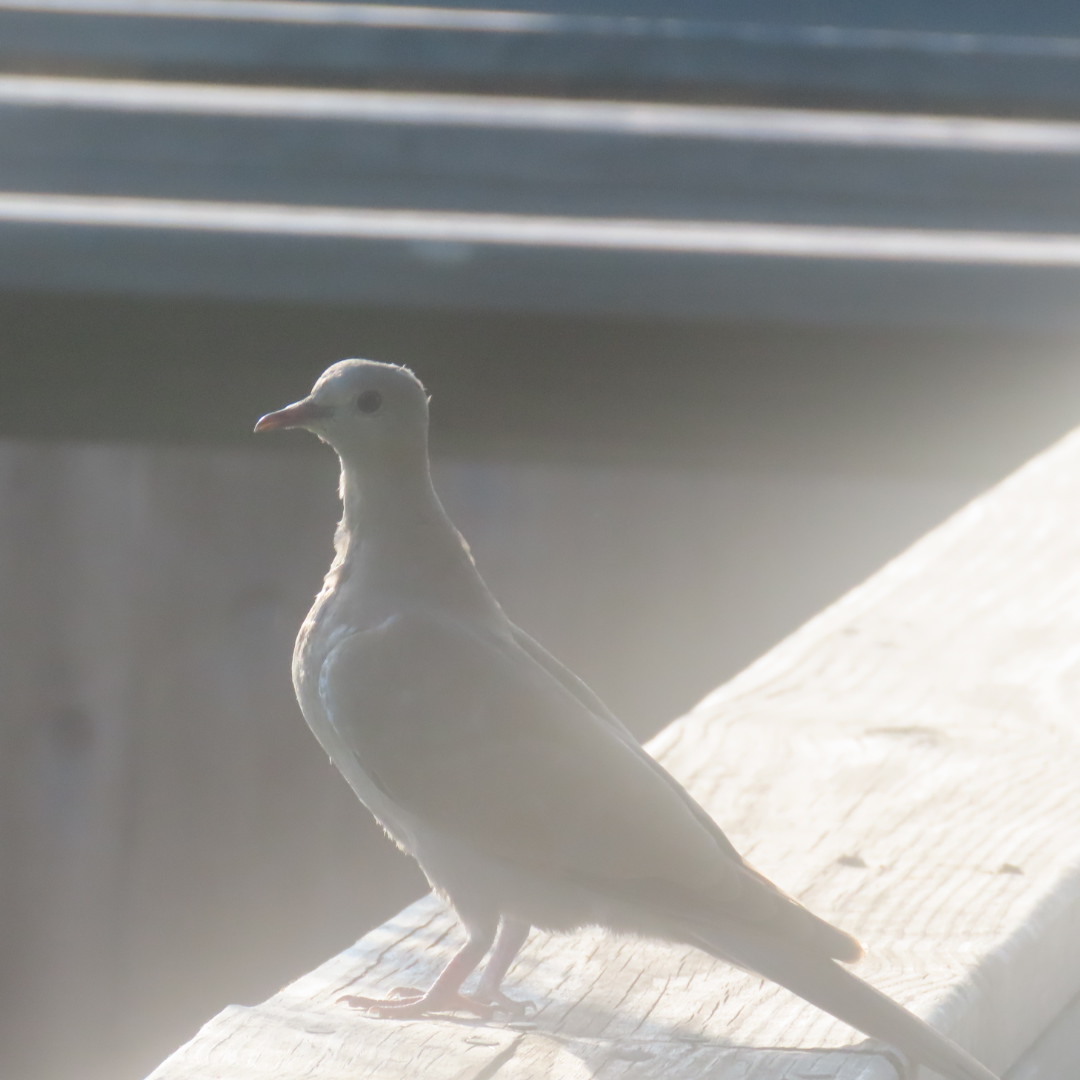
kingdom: Animalia
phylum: Chordata
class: Aves
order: Columbiformes
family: Columbidae
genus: Streptopelia
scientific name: Streptopelia decaocto
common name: Eurasian collared dove
